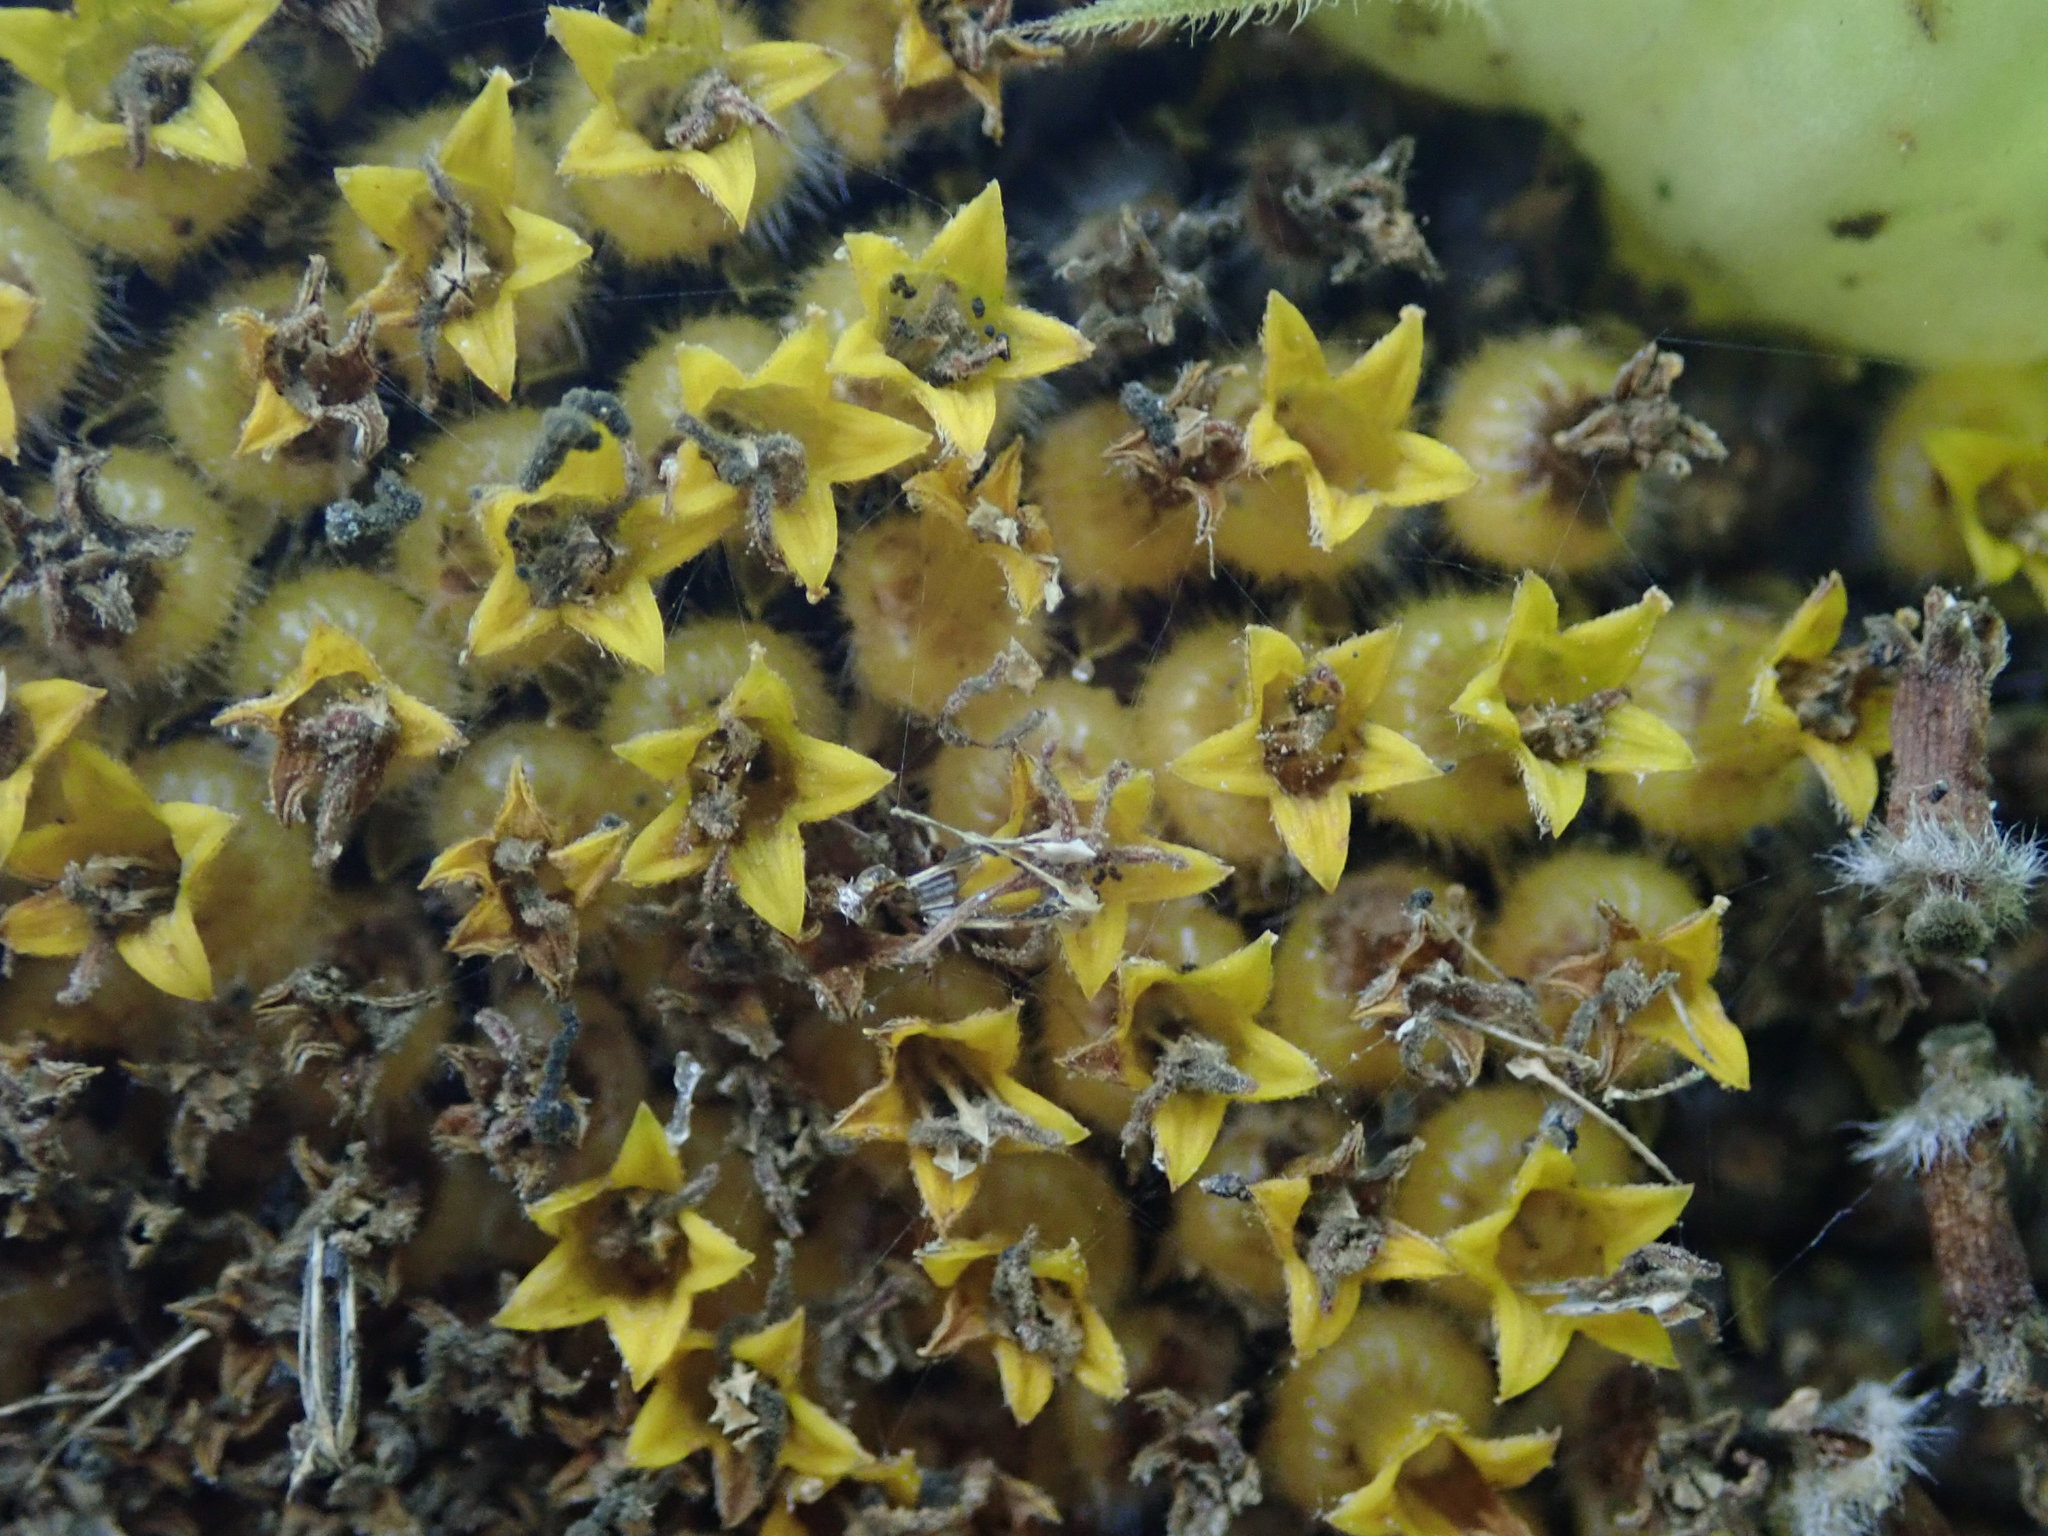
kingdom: Plantae
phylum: Tracheophyta
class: Magnoliopsida
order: Asterales
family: Asteraceae
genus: Helianthus
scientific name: Helianthus annuus
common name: Sunflower
